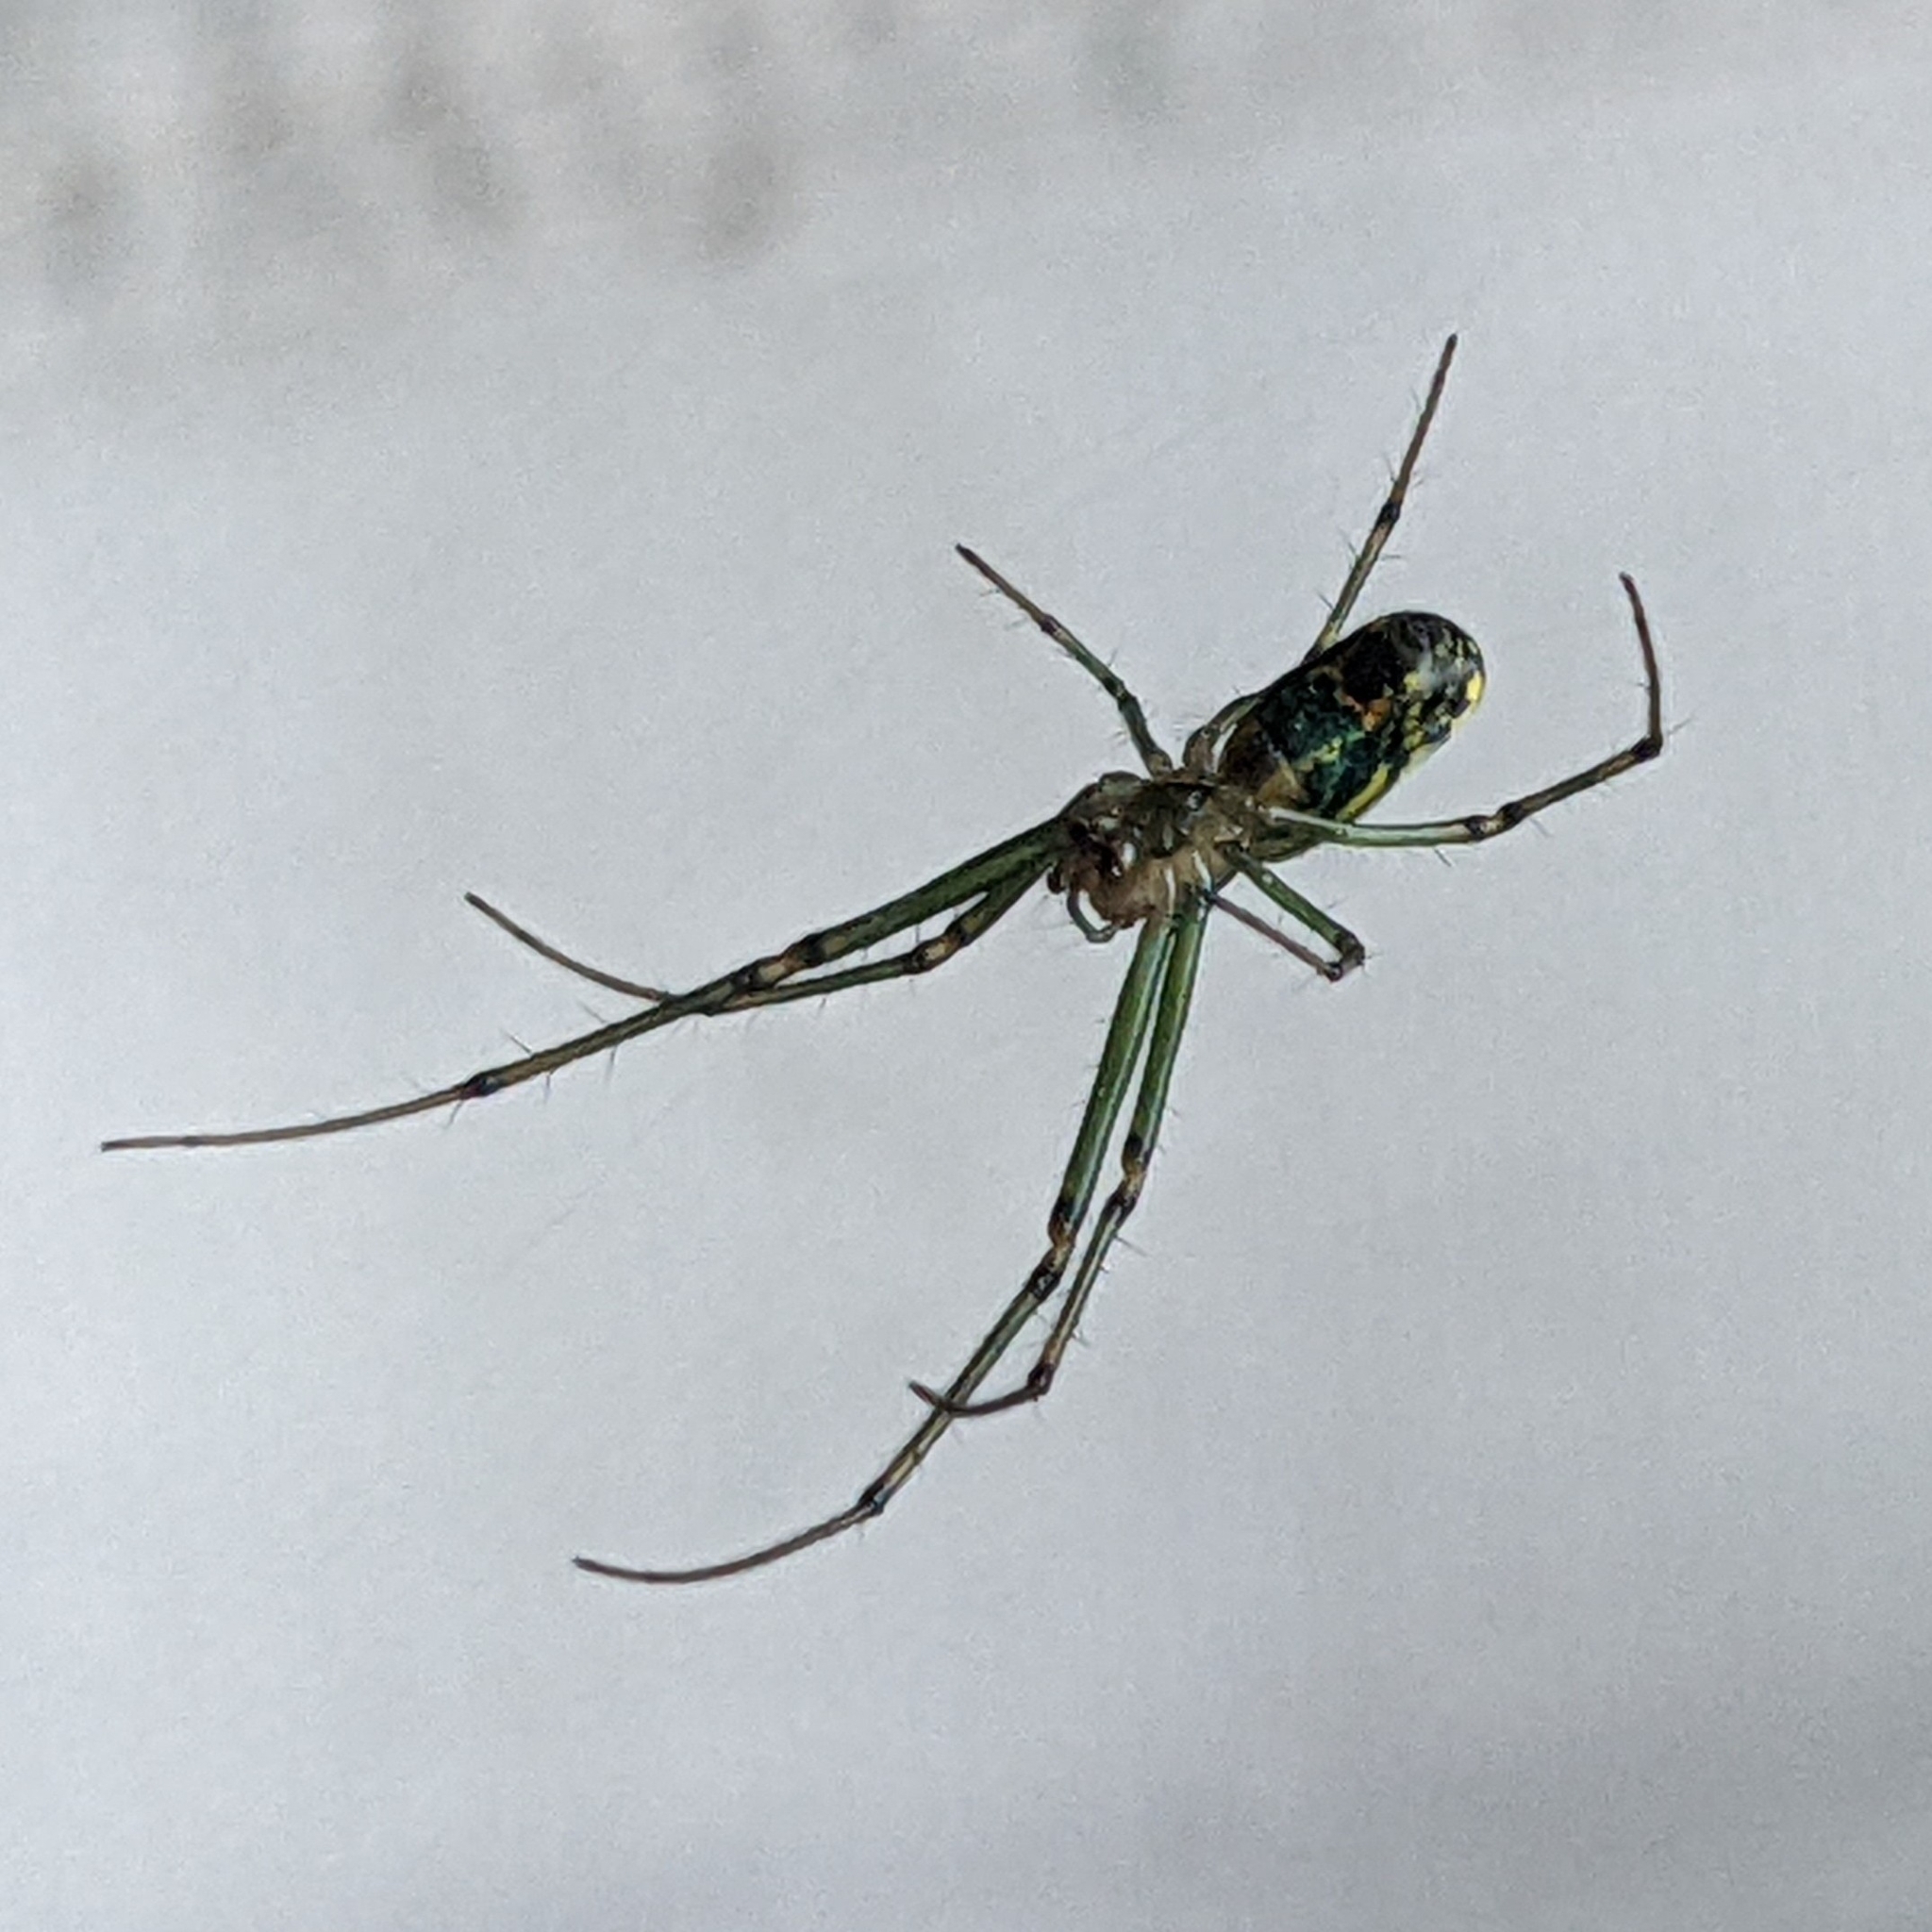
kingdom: Animalia
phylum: Arthropoda
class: Arachnida
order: Araneae
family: Tetragnathidae
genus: Leucauge
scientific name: Leucauge venusta
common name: Longjawed orb weavers
